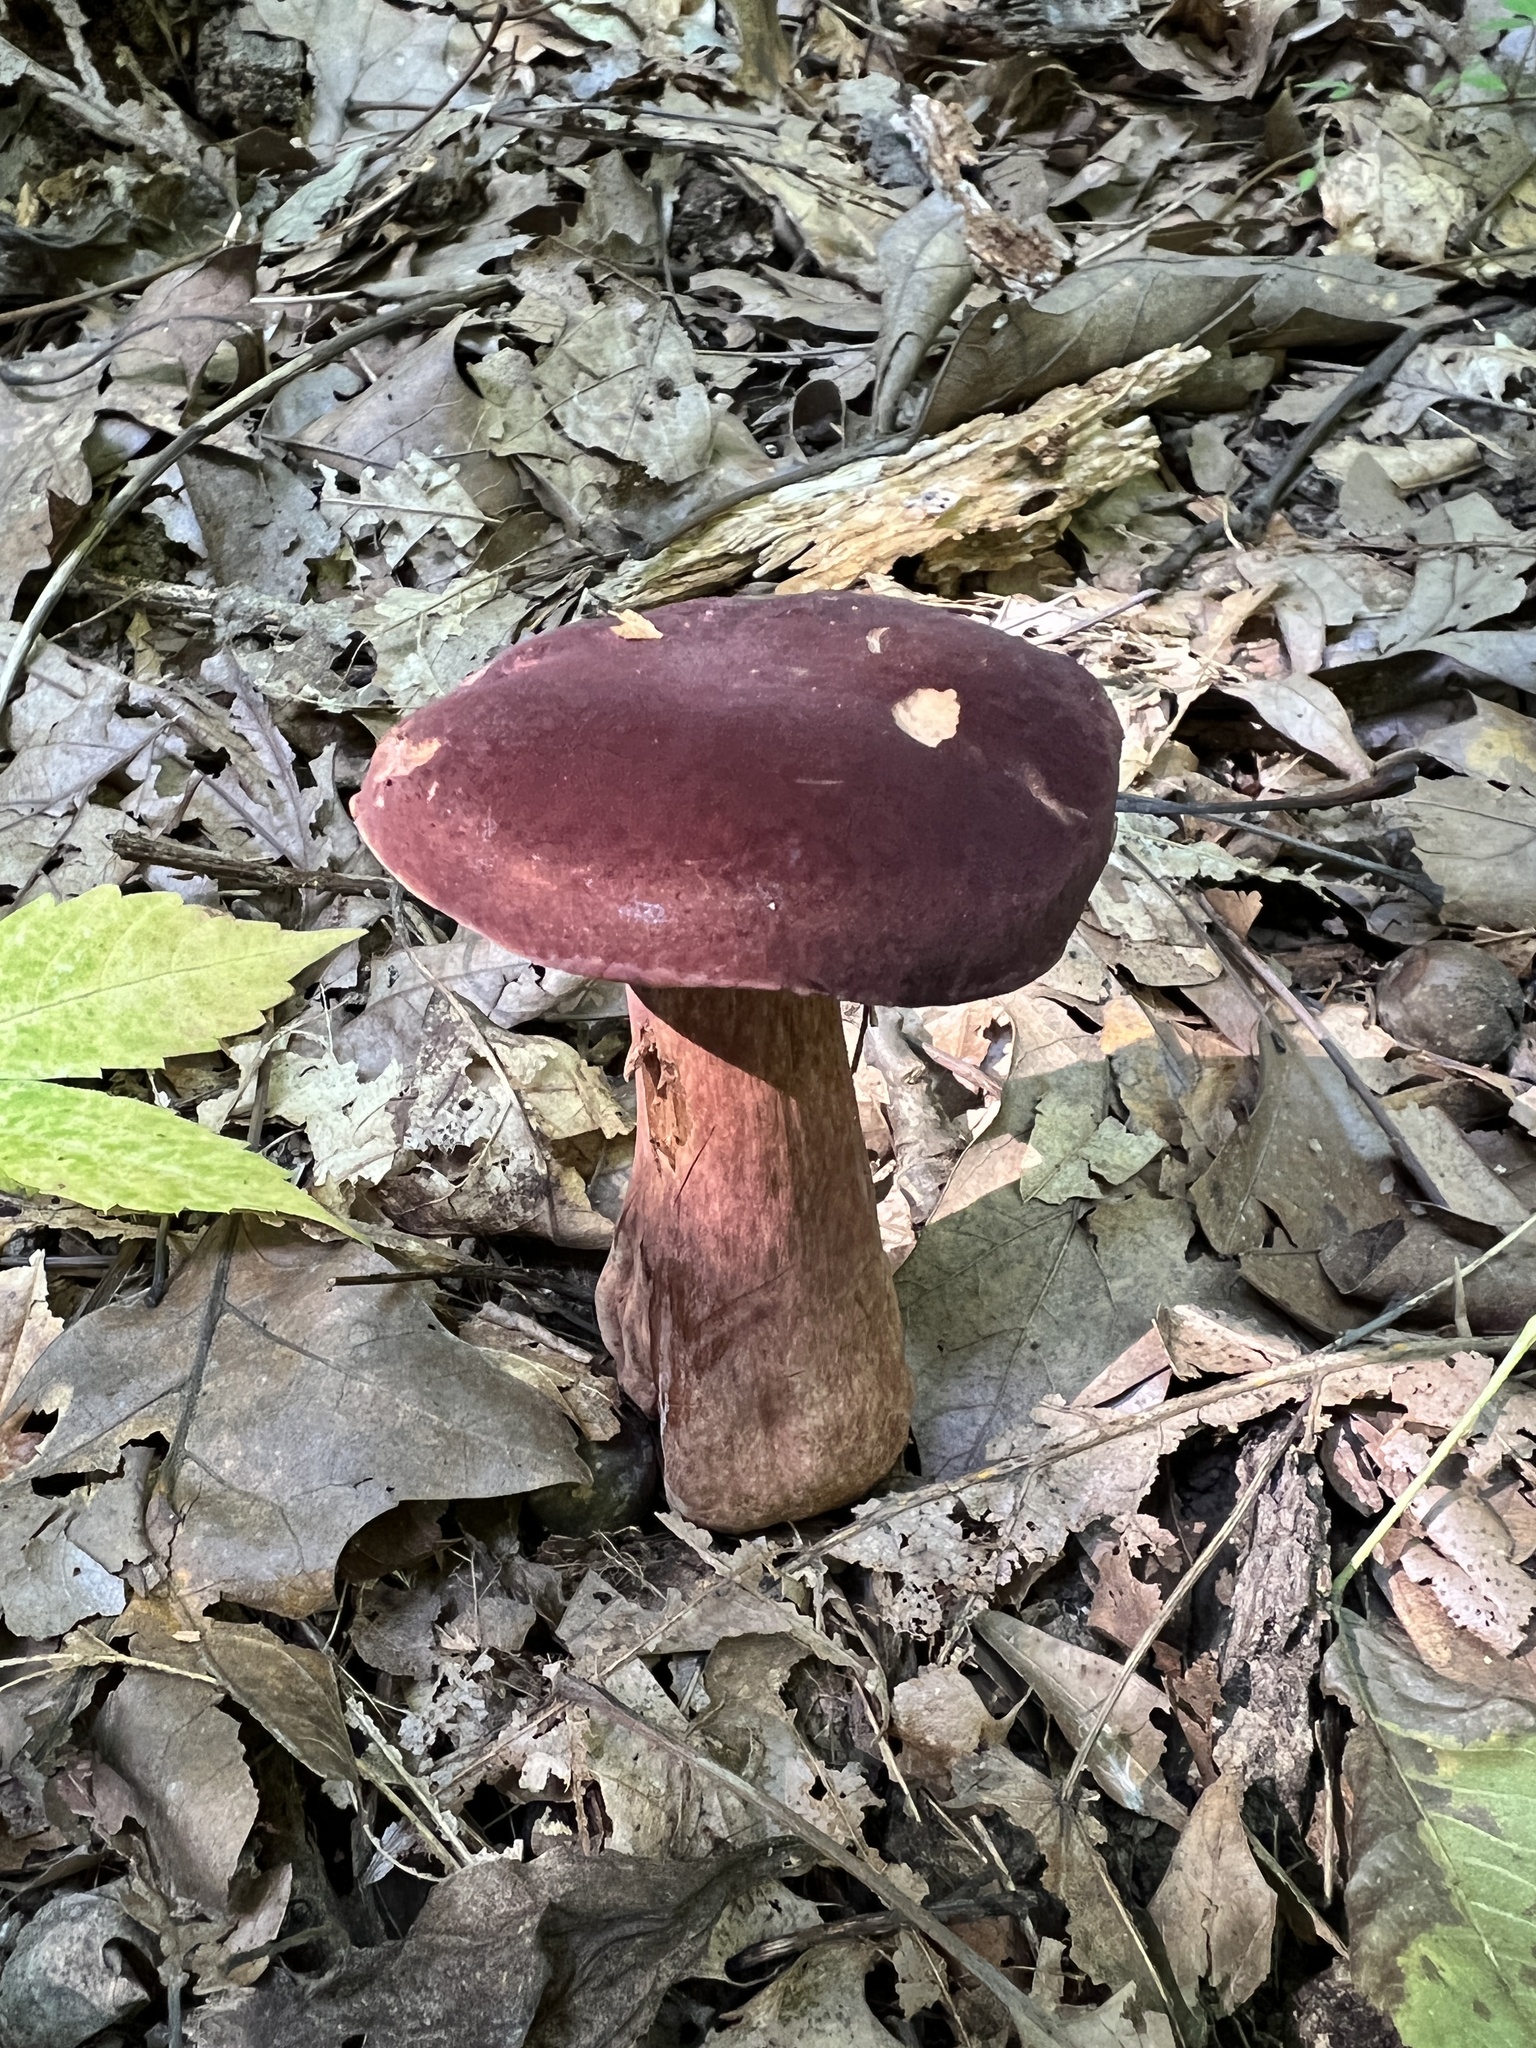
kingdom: Fungi
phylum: Basidiomycota
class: Agaricomycetes
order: Boletales
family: Boletaceae
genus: Tylopilus
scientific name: Tylopilus rubrobrunneus
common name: Reddish brown bitter bolete
